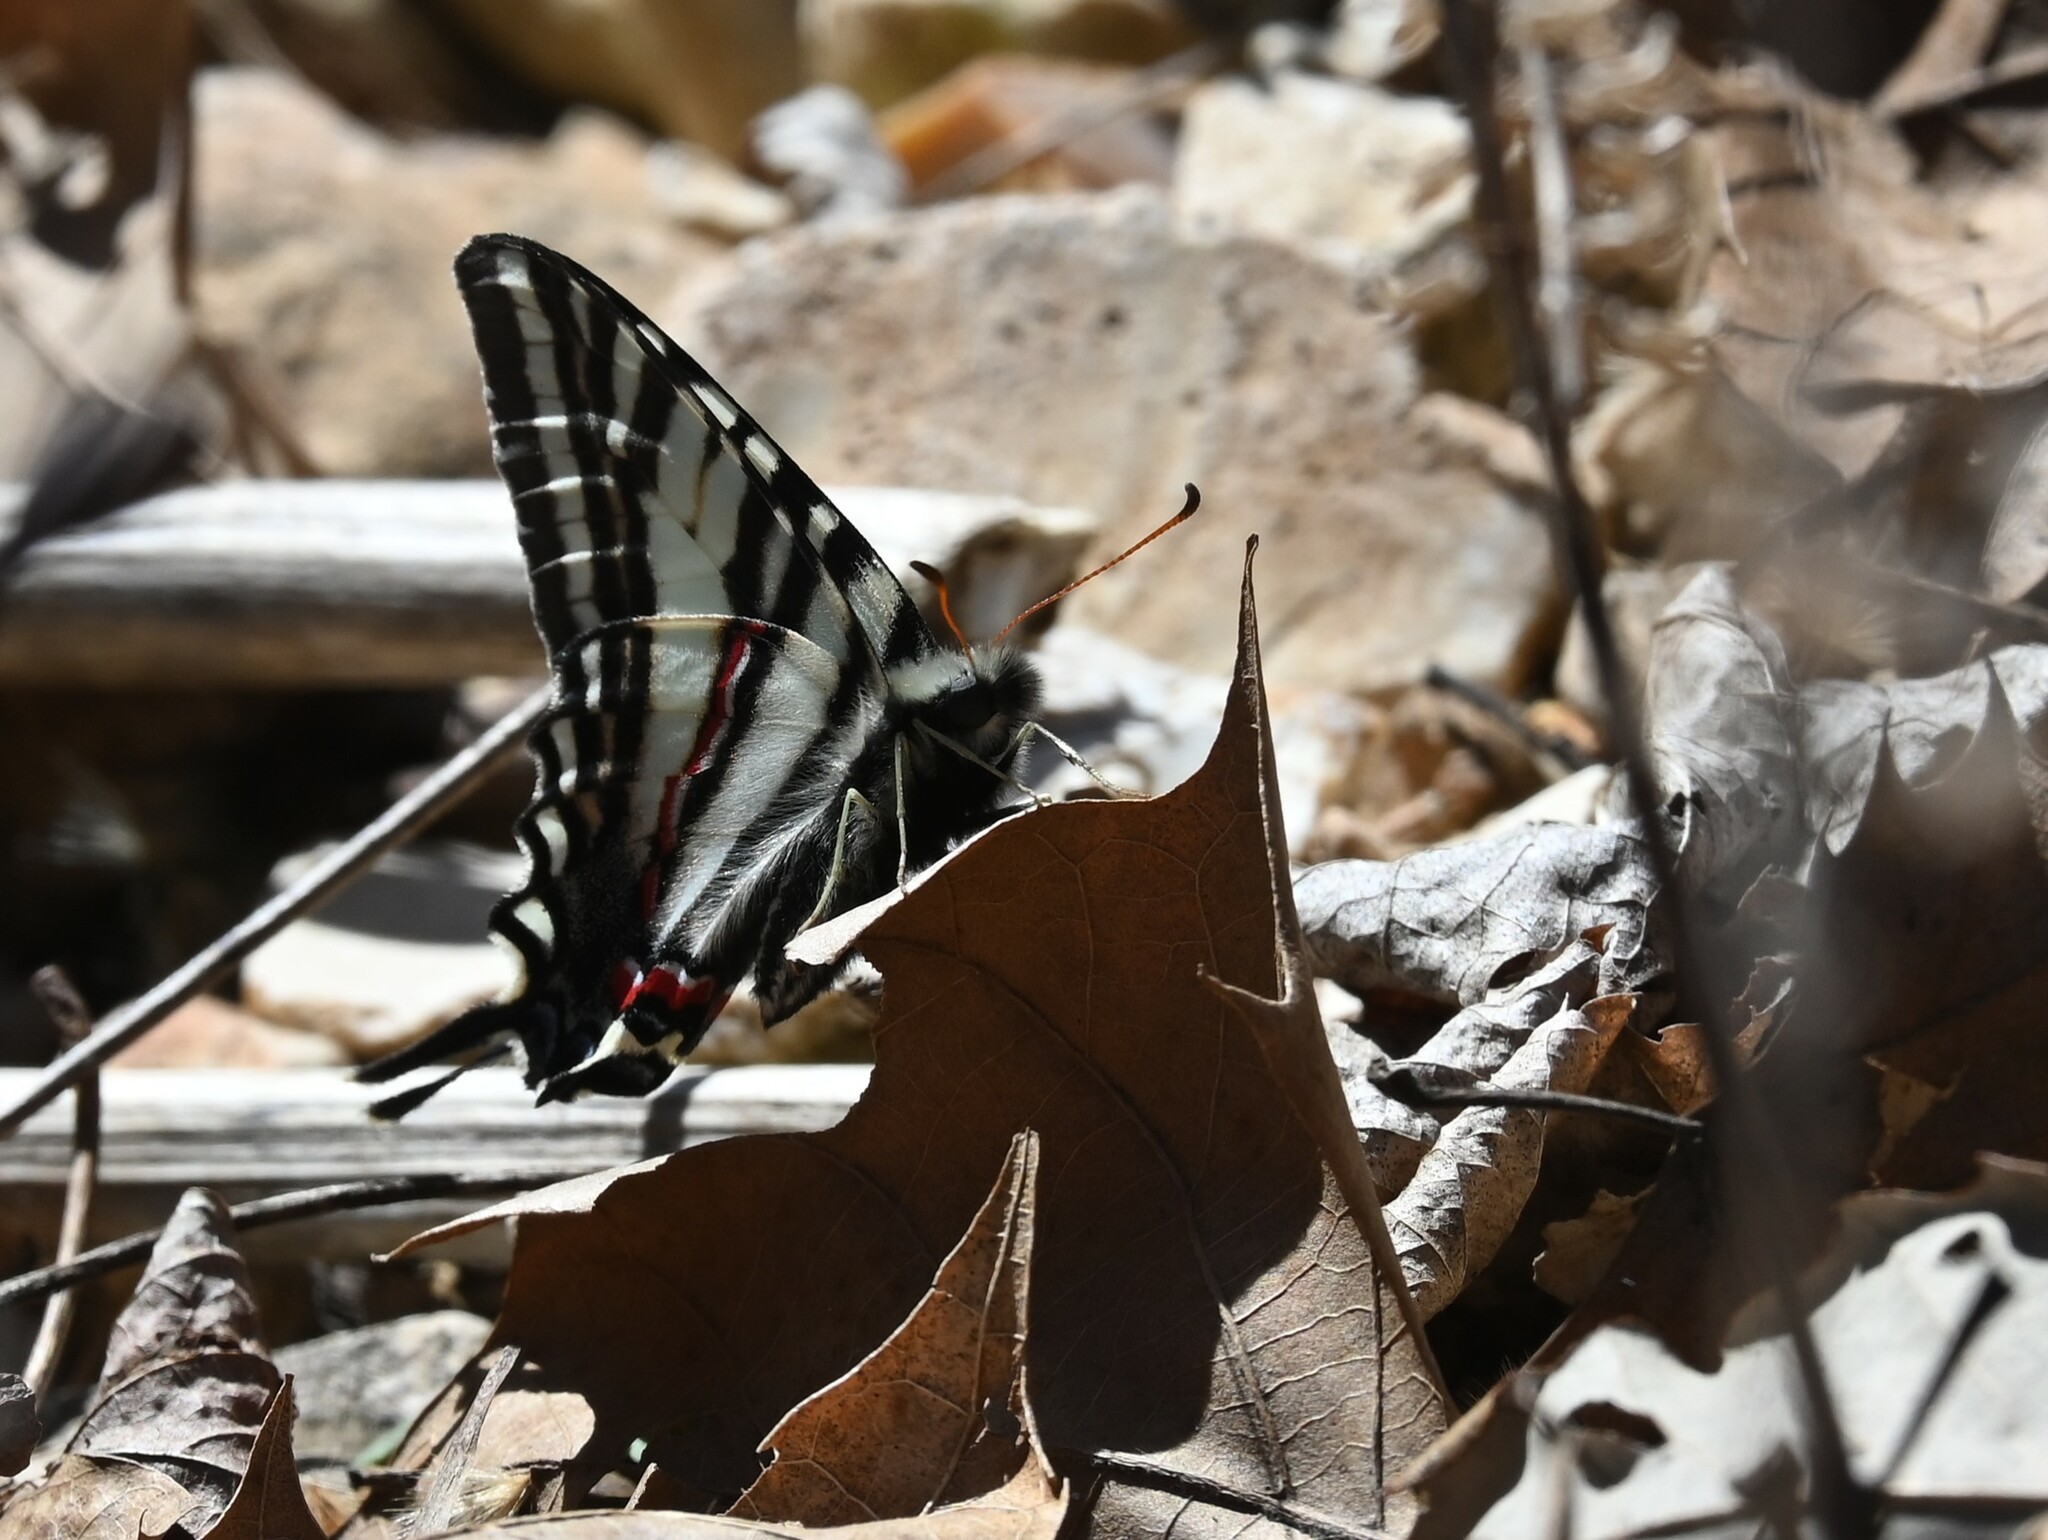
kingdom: Animalia
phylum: Arthropoda
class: Insecta
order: Lepidoptera
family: Papilionidae
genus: Protographium
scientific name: Protographium marcellus
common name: Zebra swallowtail
